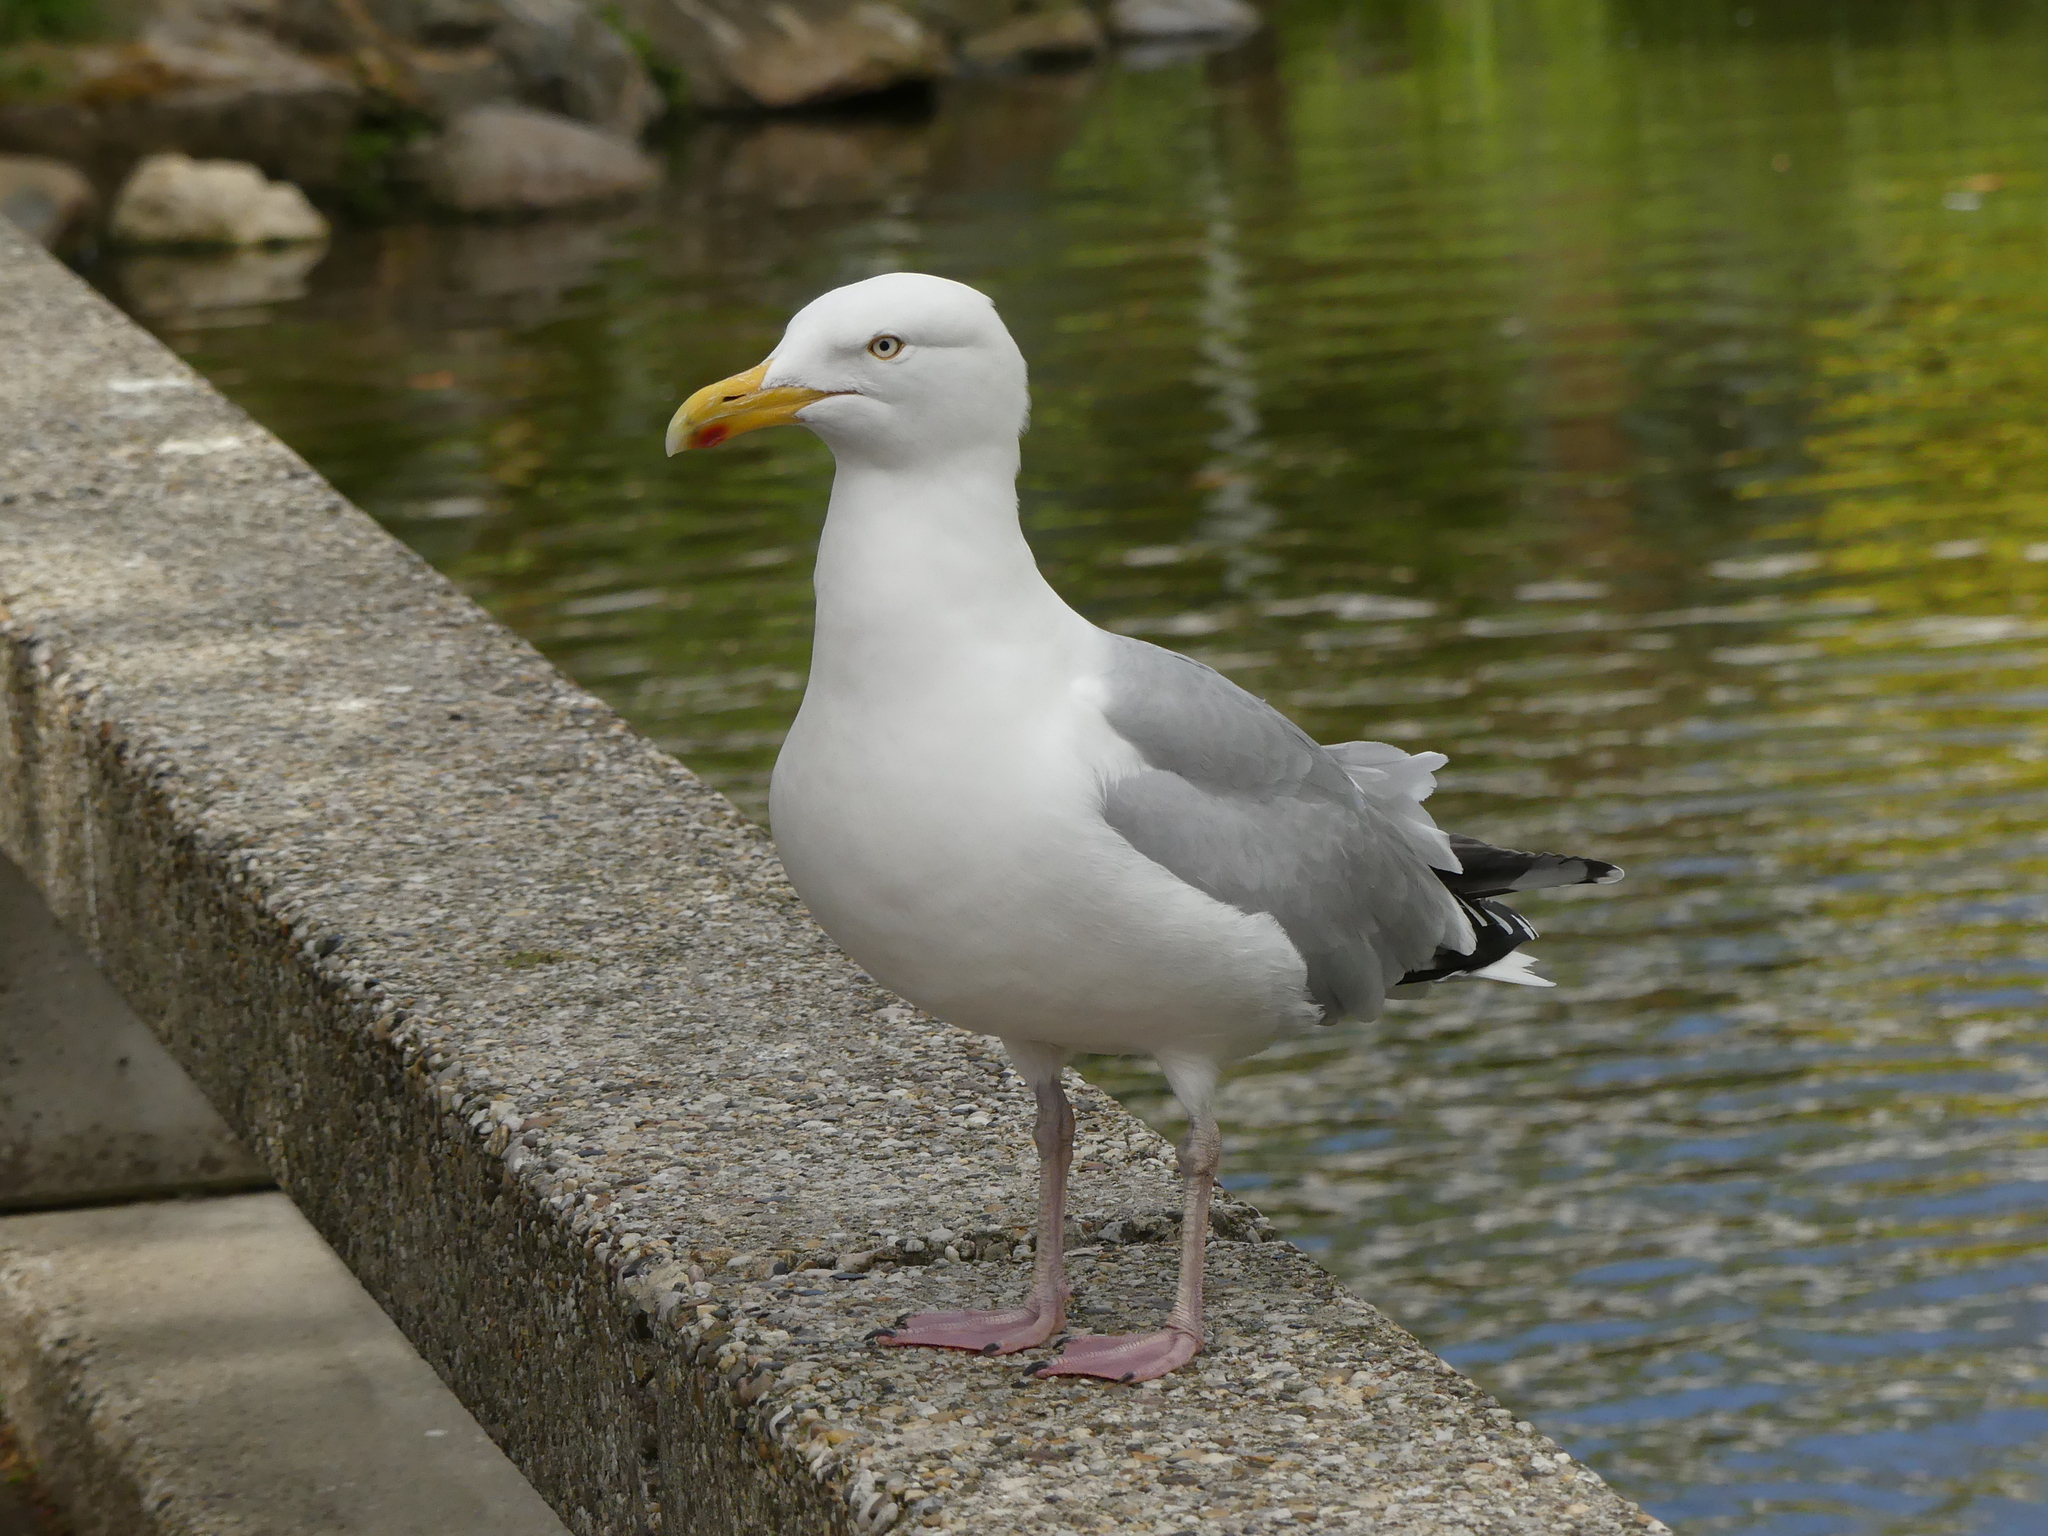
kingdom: Animalia
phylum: Chordata
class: Aves
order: Charadriiformes
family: Laridae
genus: Larus
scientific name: Larus argentatus
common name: Herring gull
